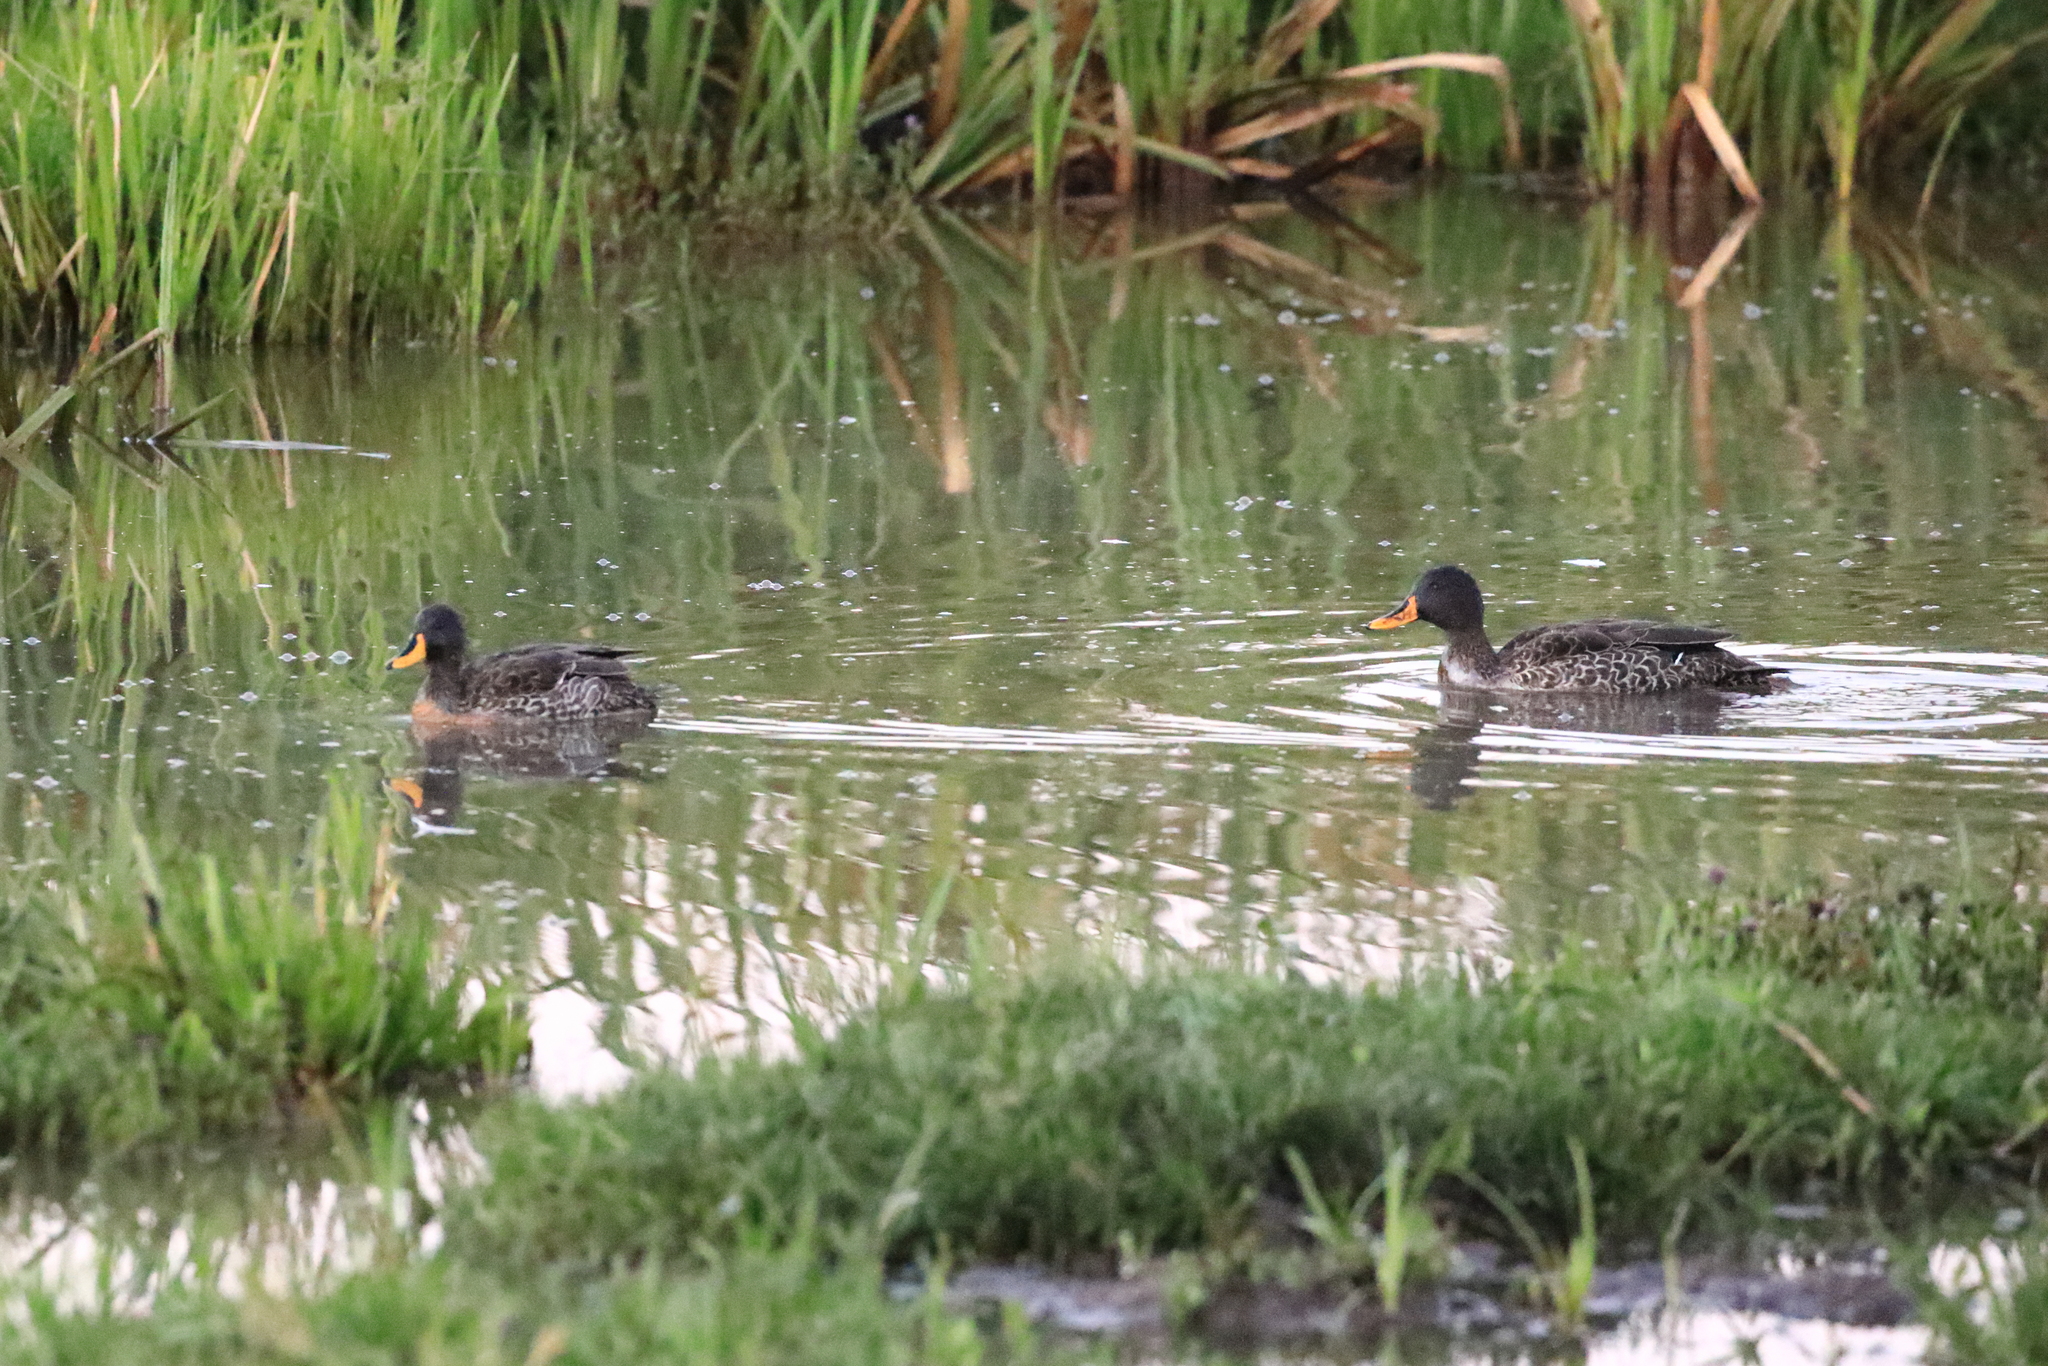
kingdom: Animalia
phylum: Chordata
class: Aves
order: Anseriformes
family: Anatidae
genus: Anas
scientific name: Anas undulata
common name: Yellow-billed duck
